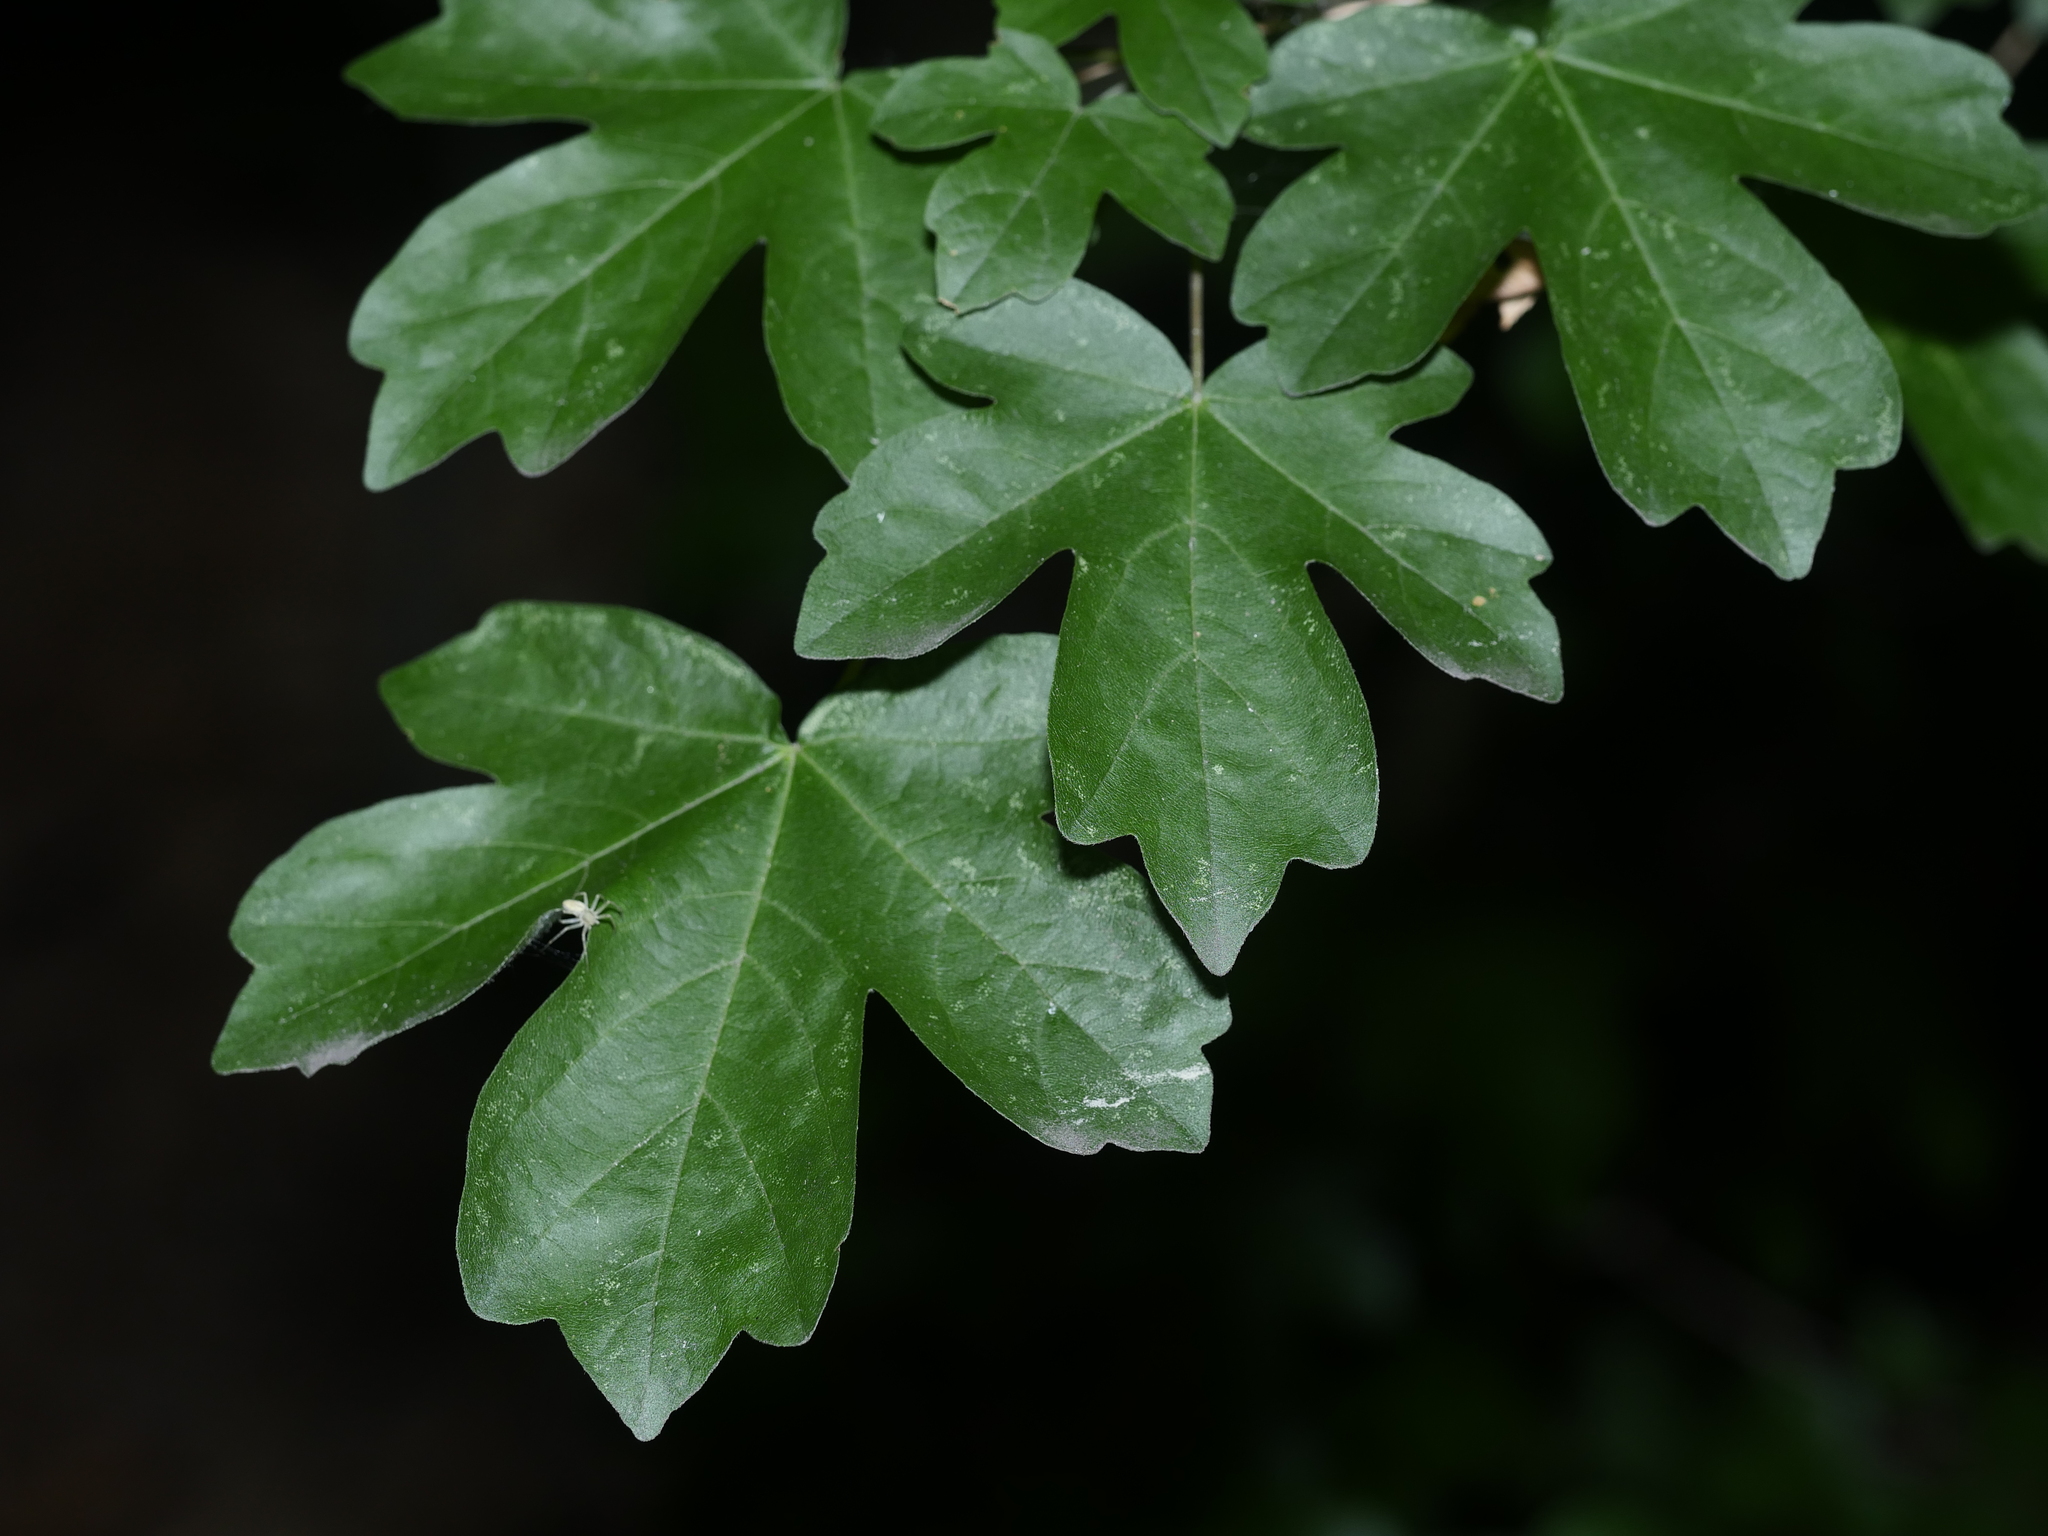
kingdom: Plantae
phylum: Tracheophyta
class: Magnoliopsida
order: Sapindales
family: Sapindaceae
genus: Acer
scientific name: Acer campestre
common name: Field maple
